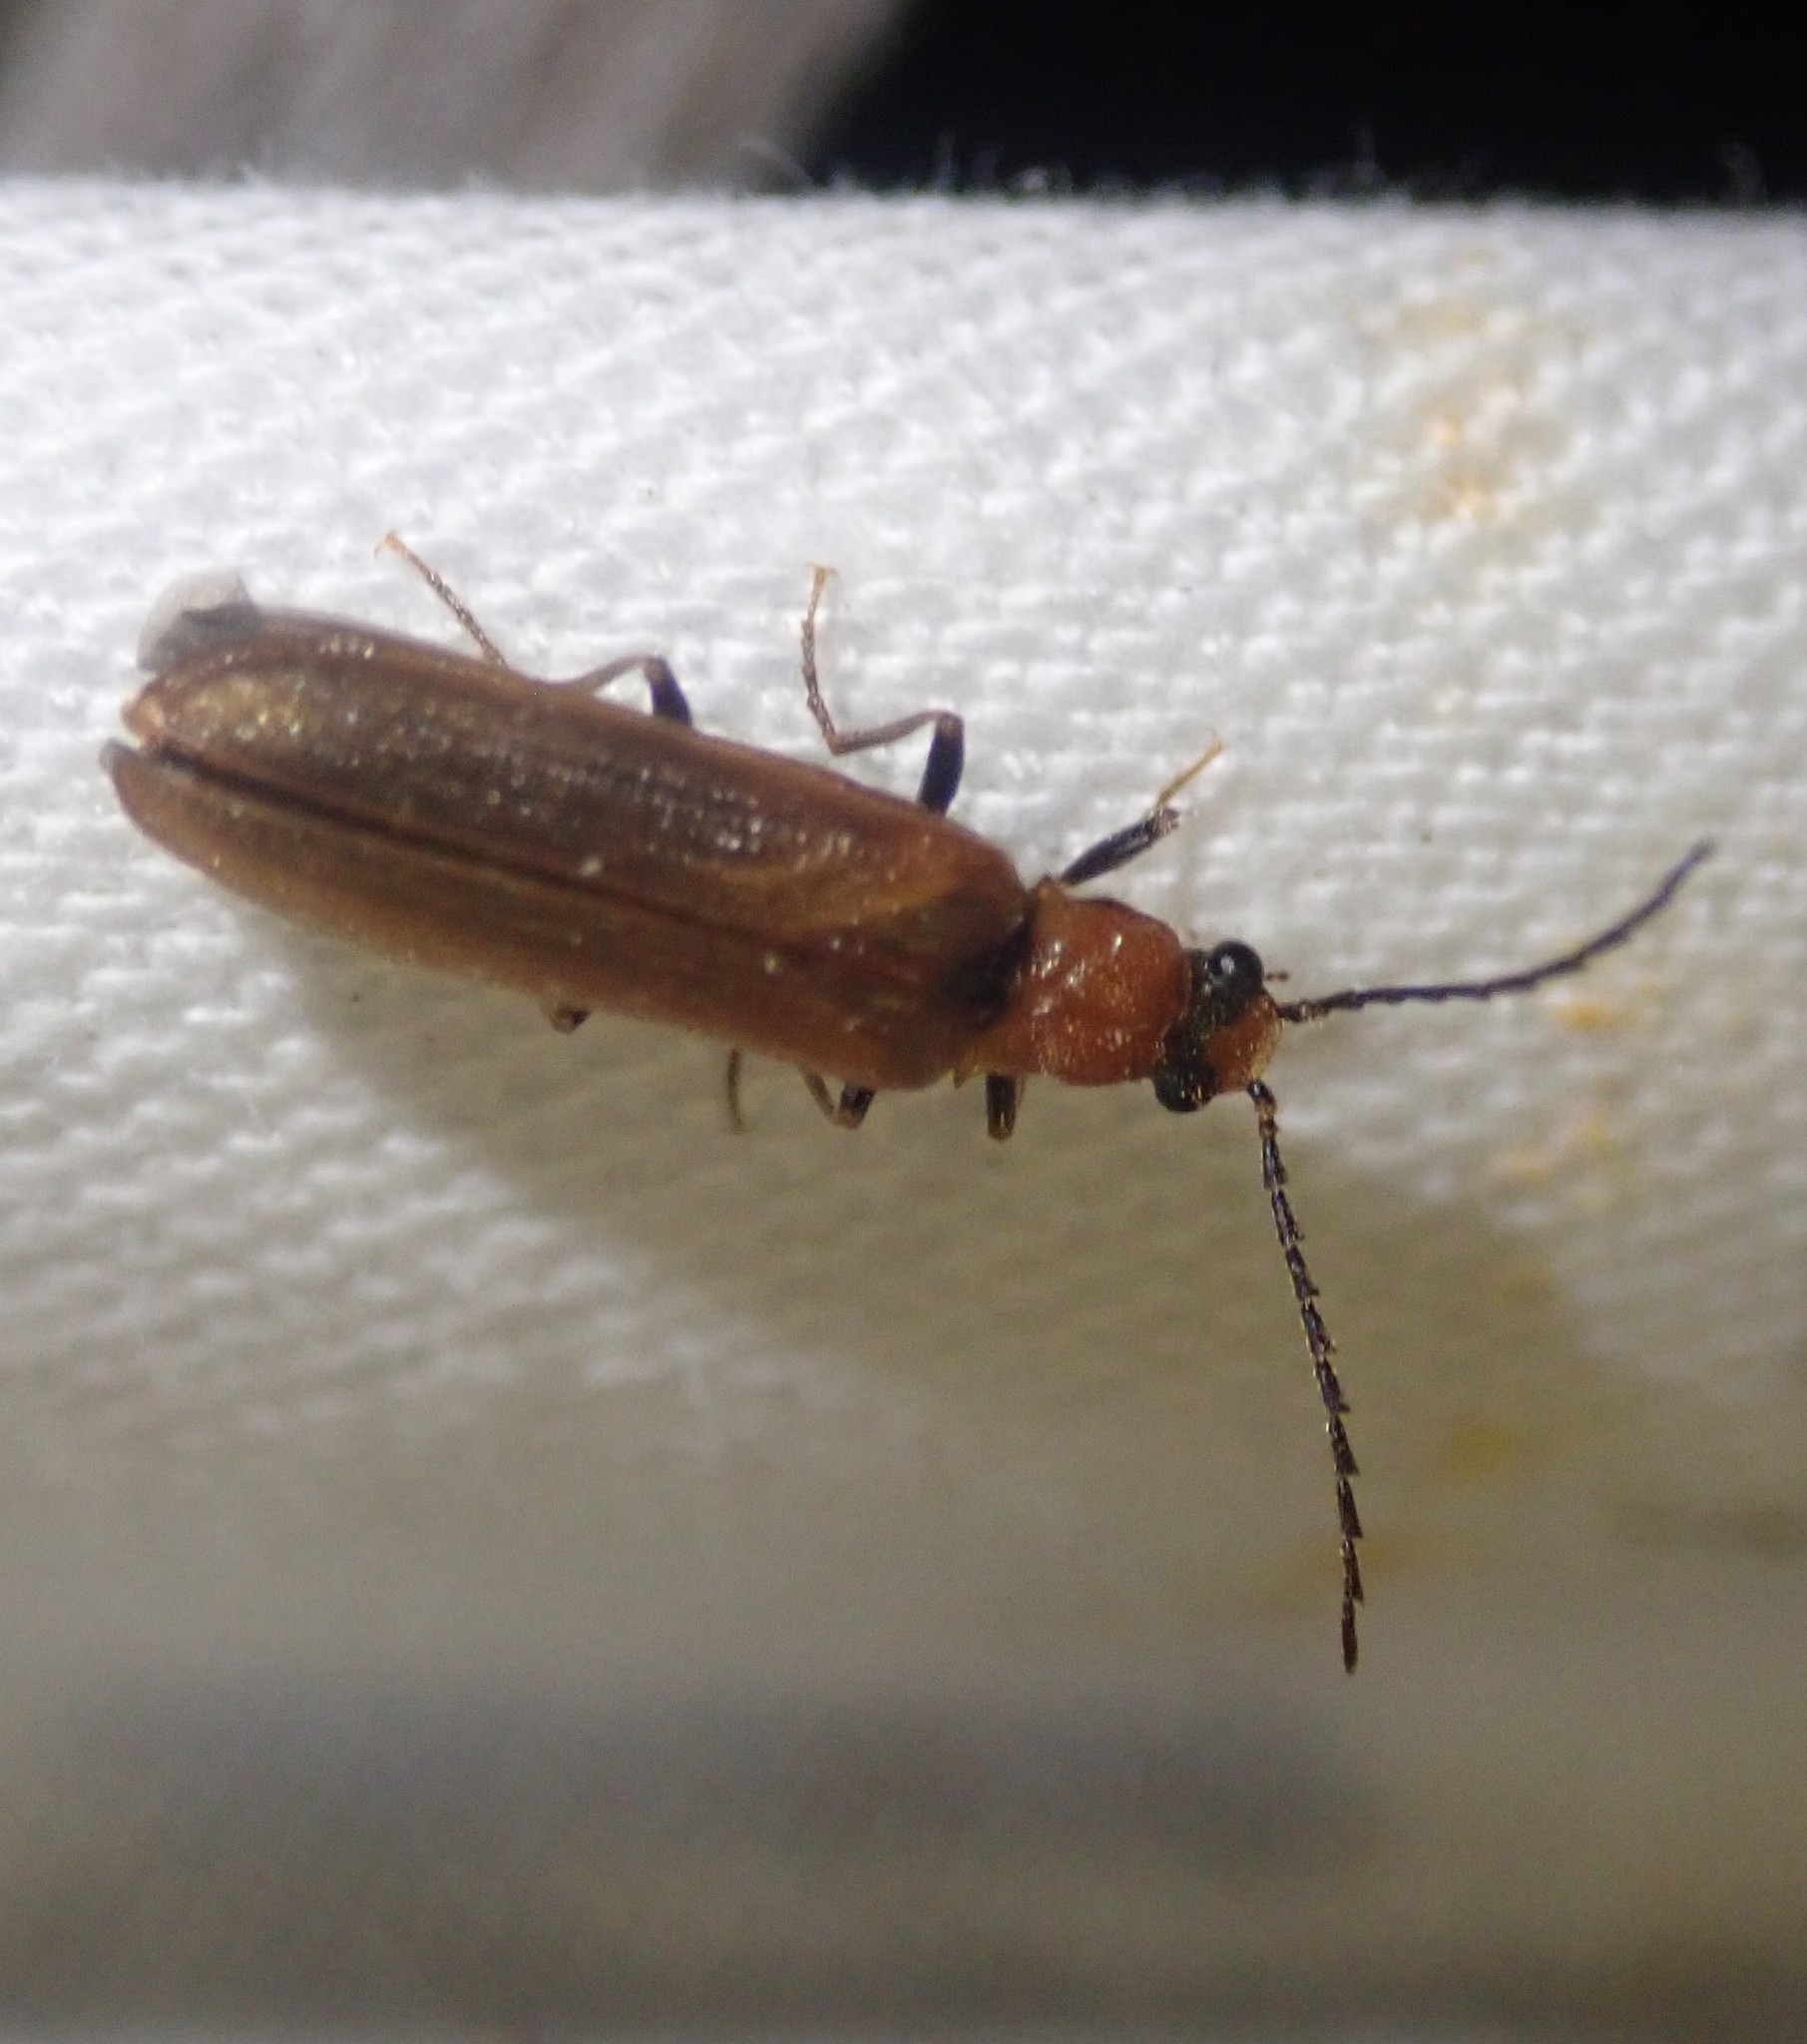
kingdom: Animalia
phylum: Arthropoda
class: Insecta
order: Coleoptera
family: Elateridae
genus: Denticollis
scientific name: Denticollis linearis
